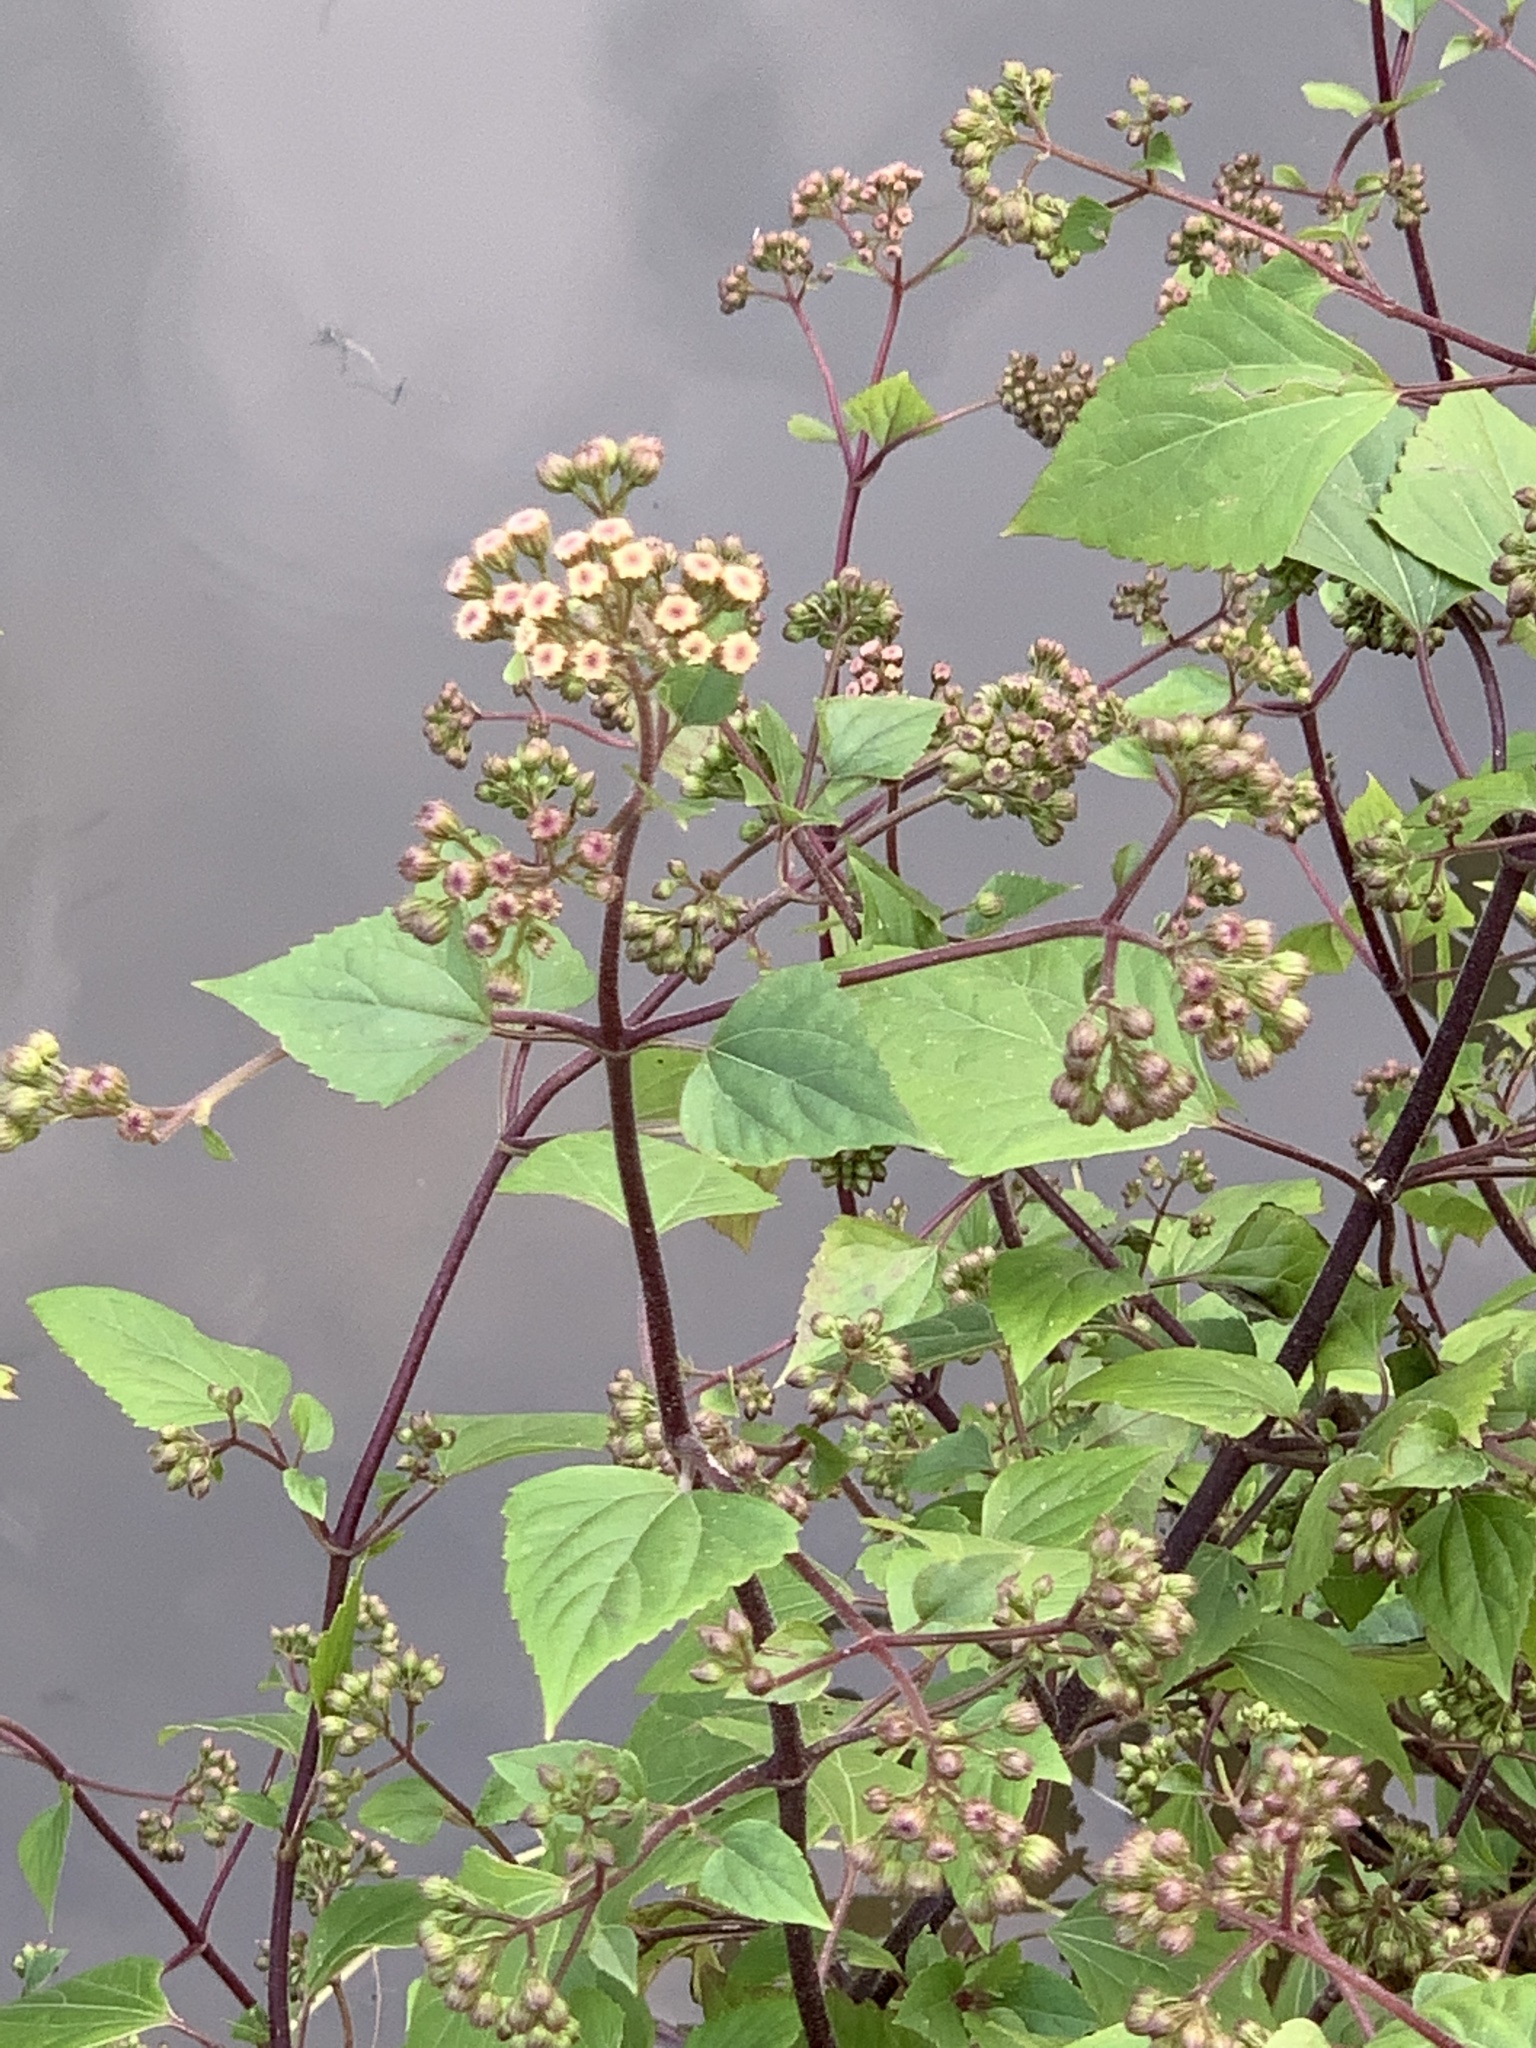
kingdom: Plantae
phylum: Tracheophyta
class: Magnoliopsida
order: Asterales
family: Asteraceae
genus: Ageratina
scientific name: Ageratina adenophora
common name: Sticky snakeroot
